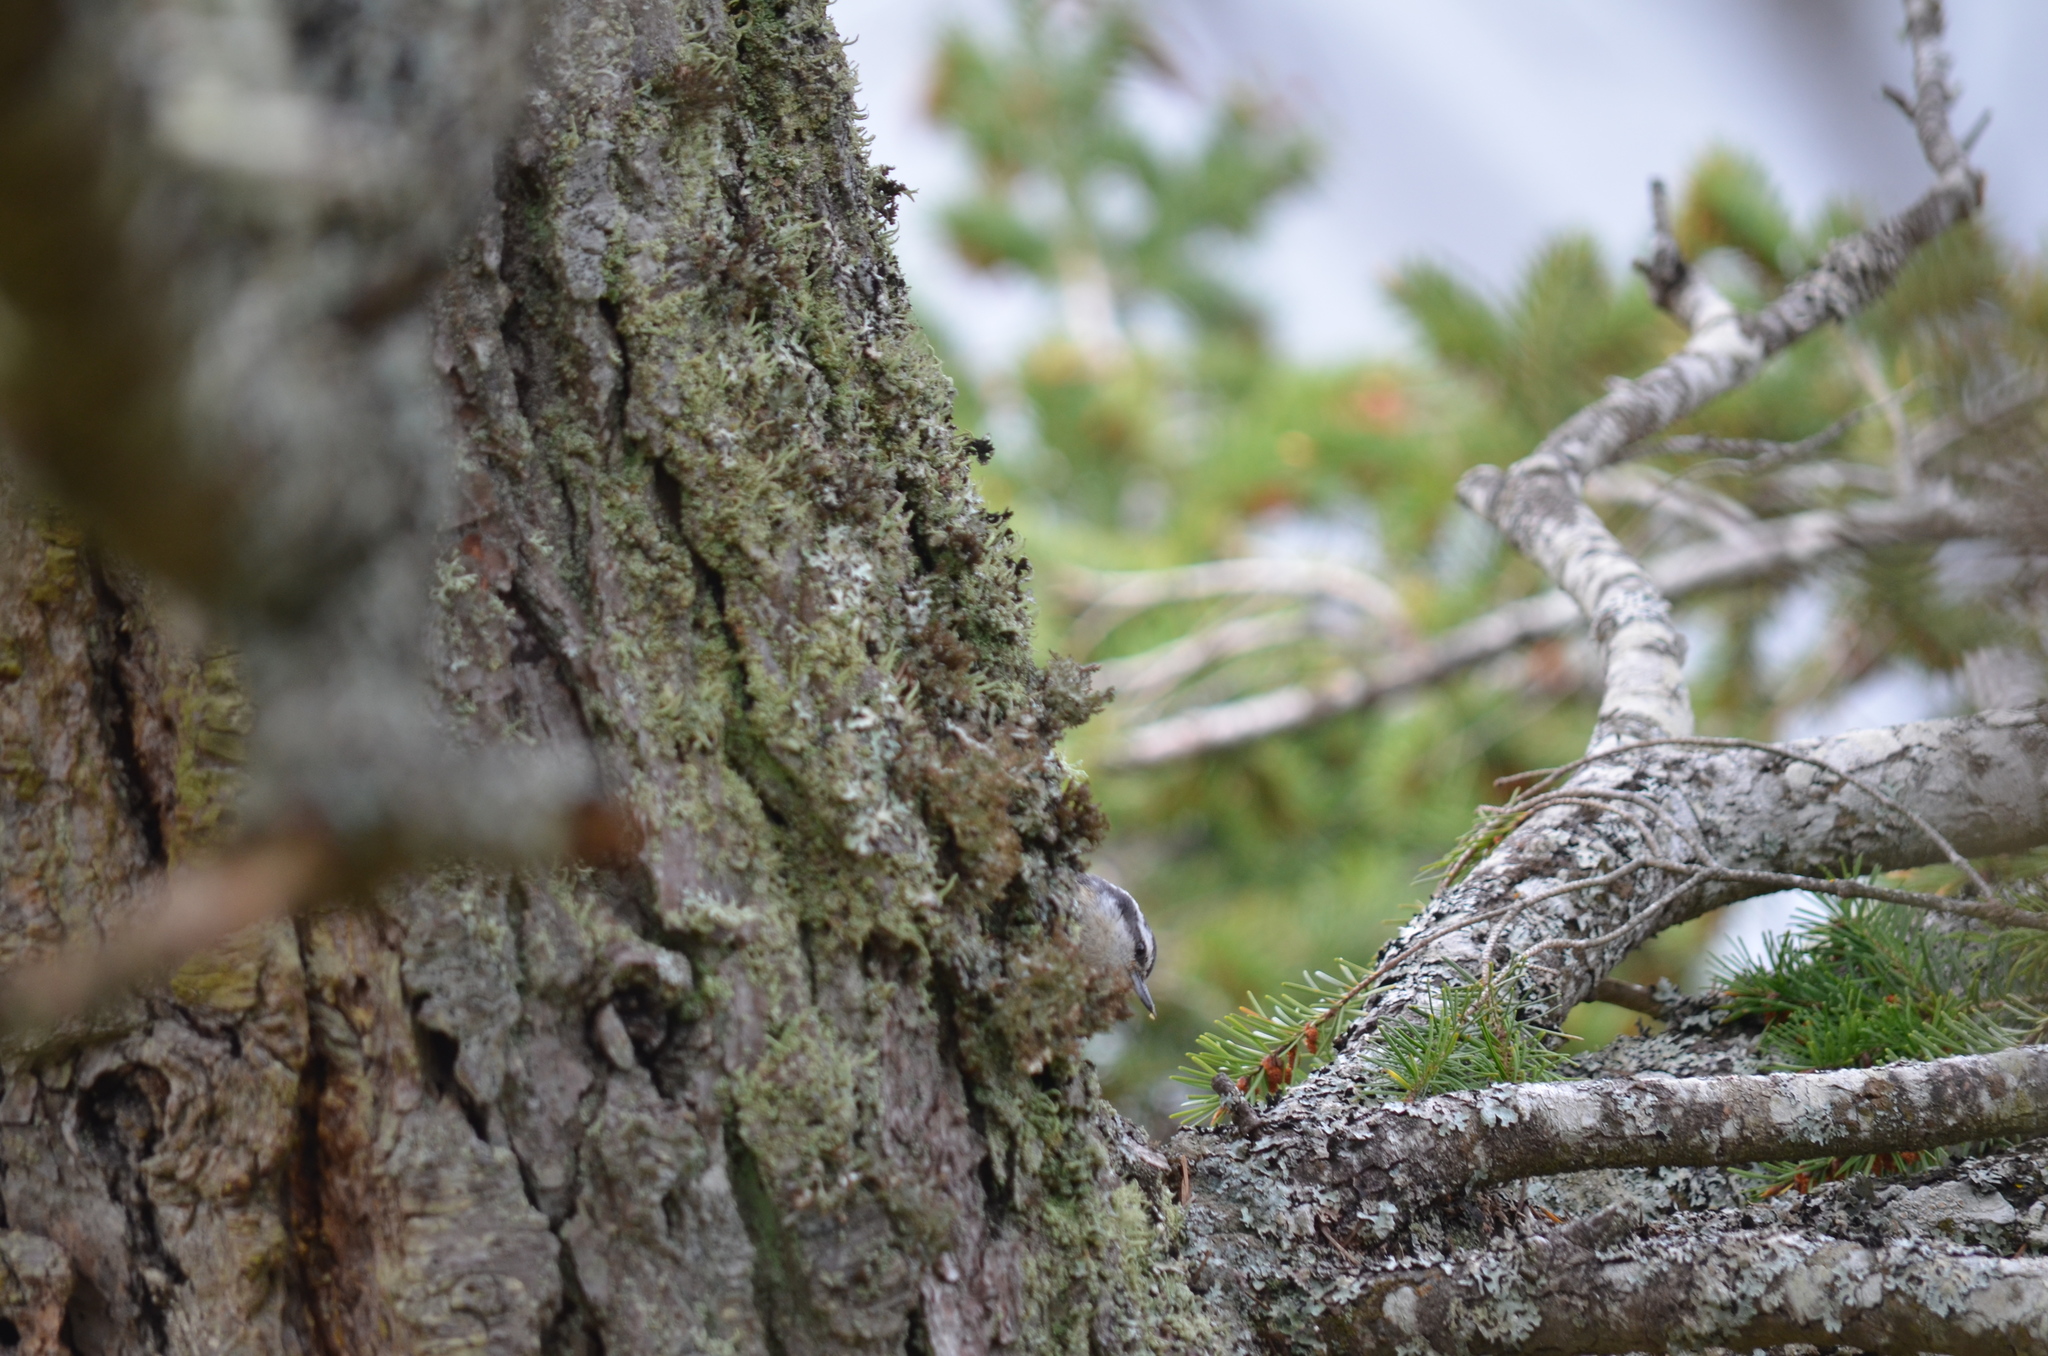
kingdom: Animalia
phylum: Chordata
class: Aves
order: Passeriformes
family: Sittidae
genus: Sitta
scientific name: Sitta canadensis
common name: Red-breasted nuthatch
